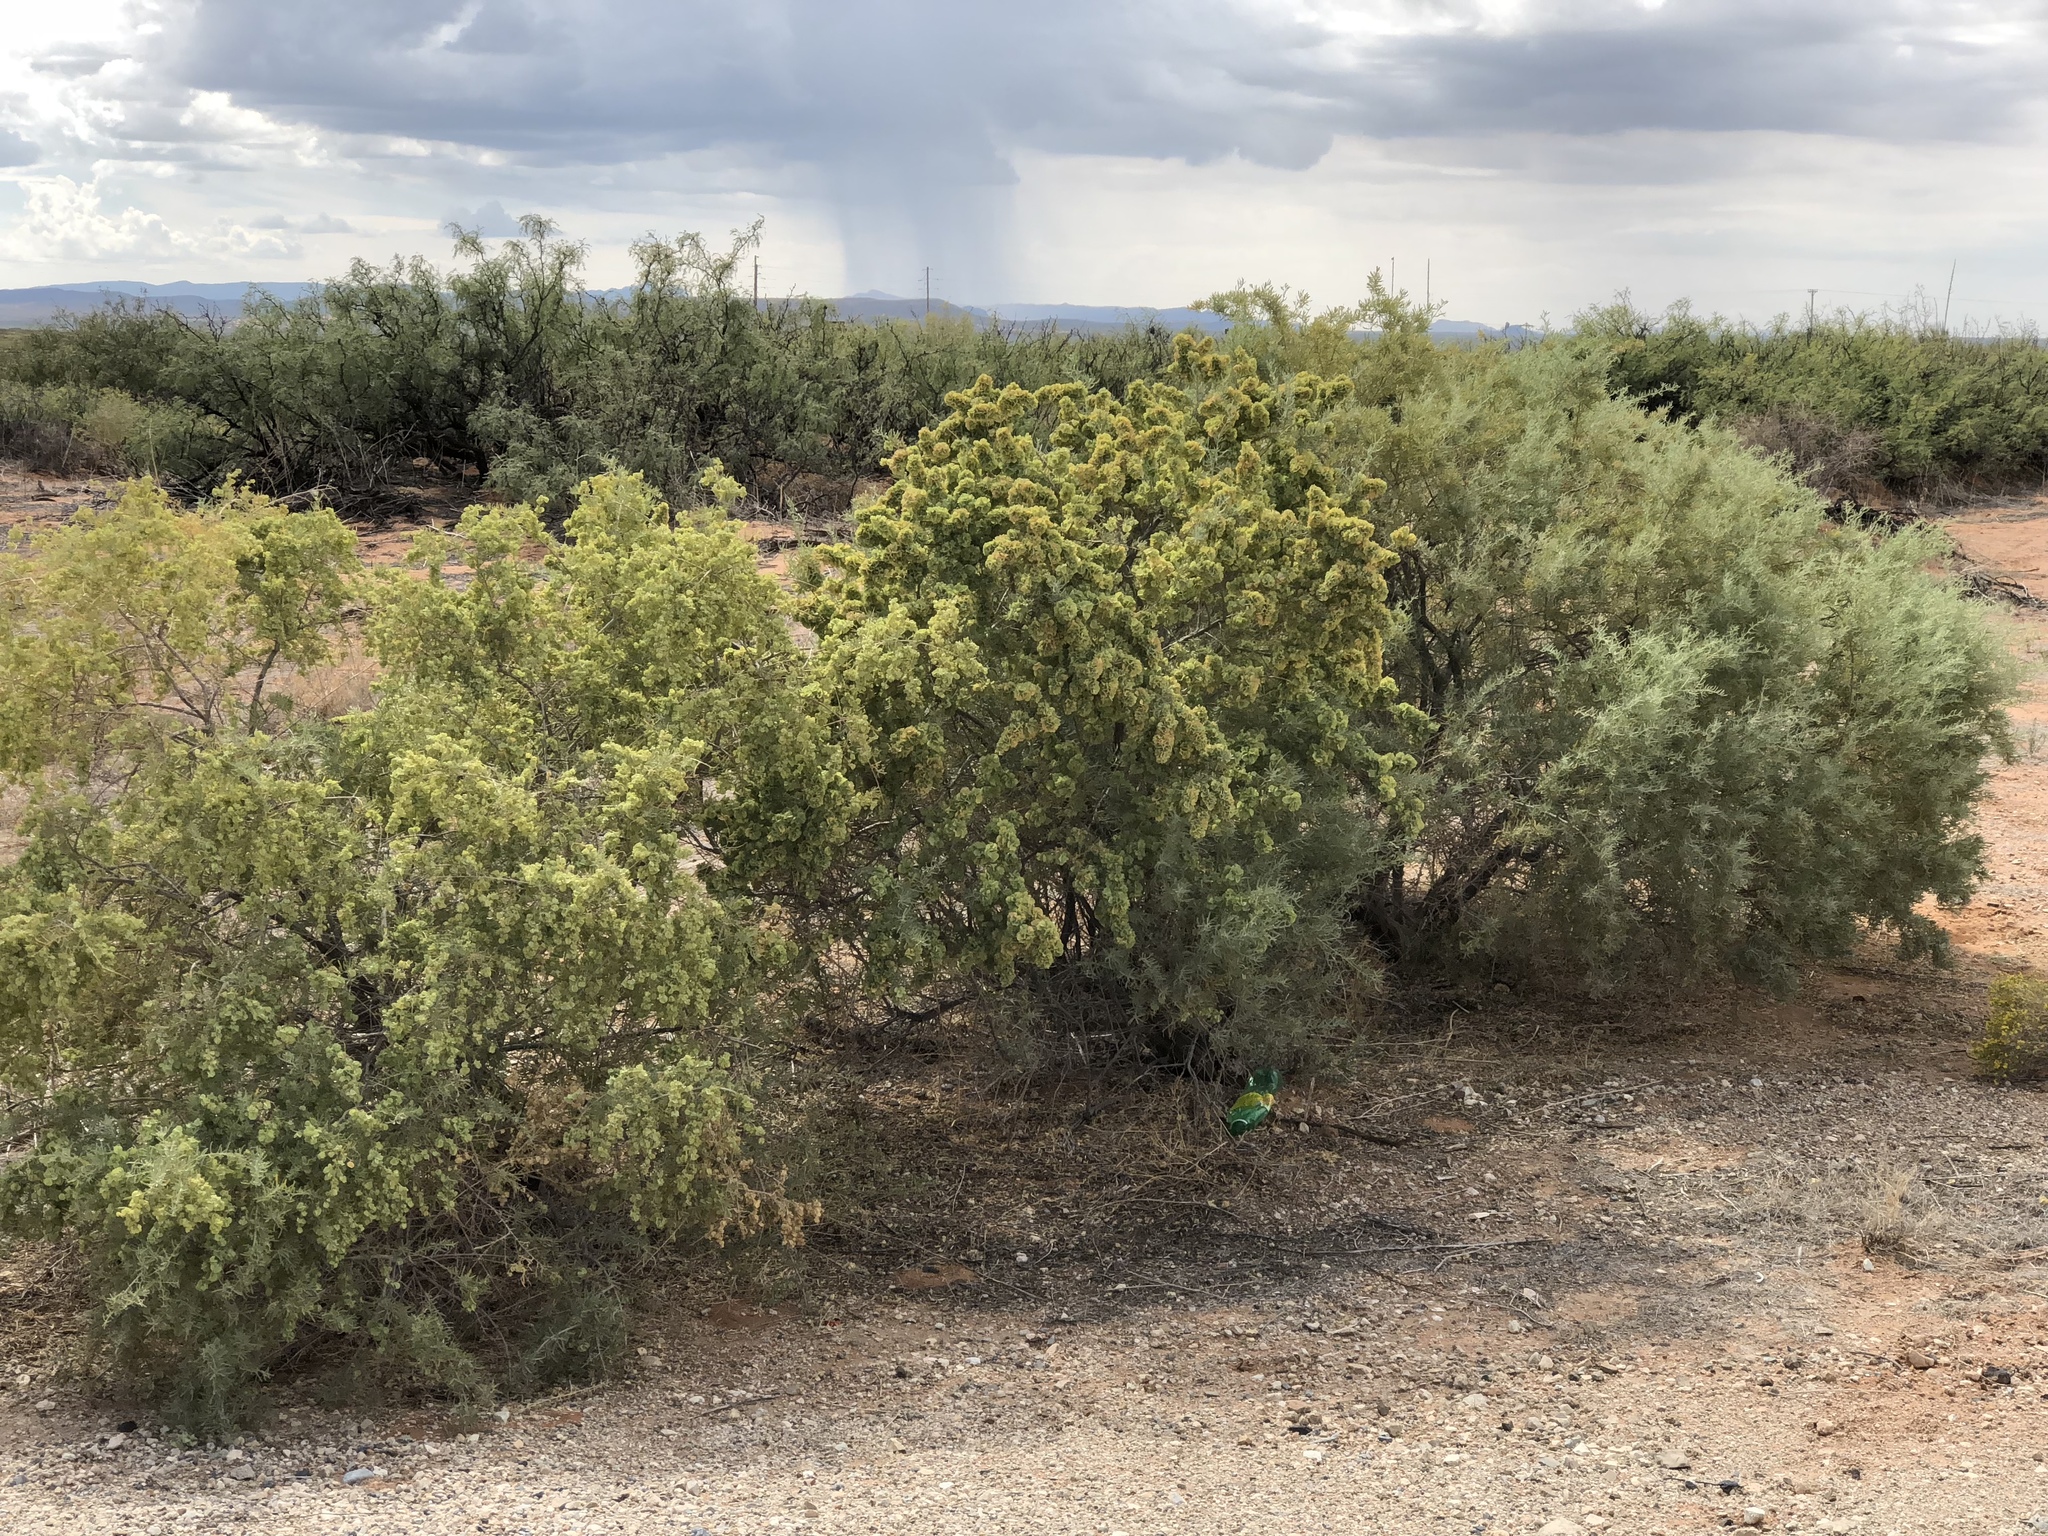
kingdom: Plantae
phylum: Tracheophyta
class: Magnoliopsida
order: Caryophyllales
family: Amaranthaceae
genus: Atriplex
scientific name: Atriplex canescens
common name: Four-wing saltbush
